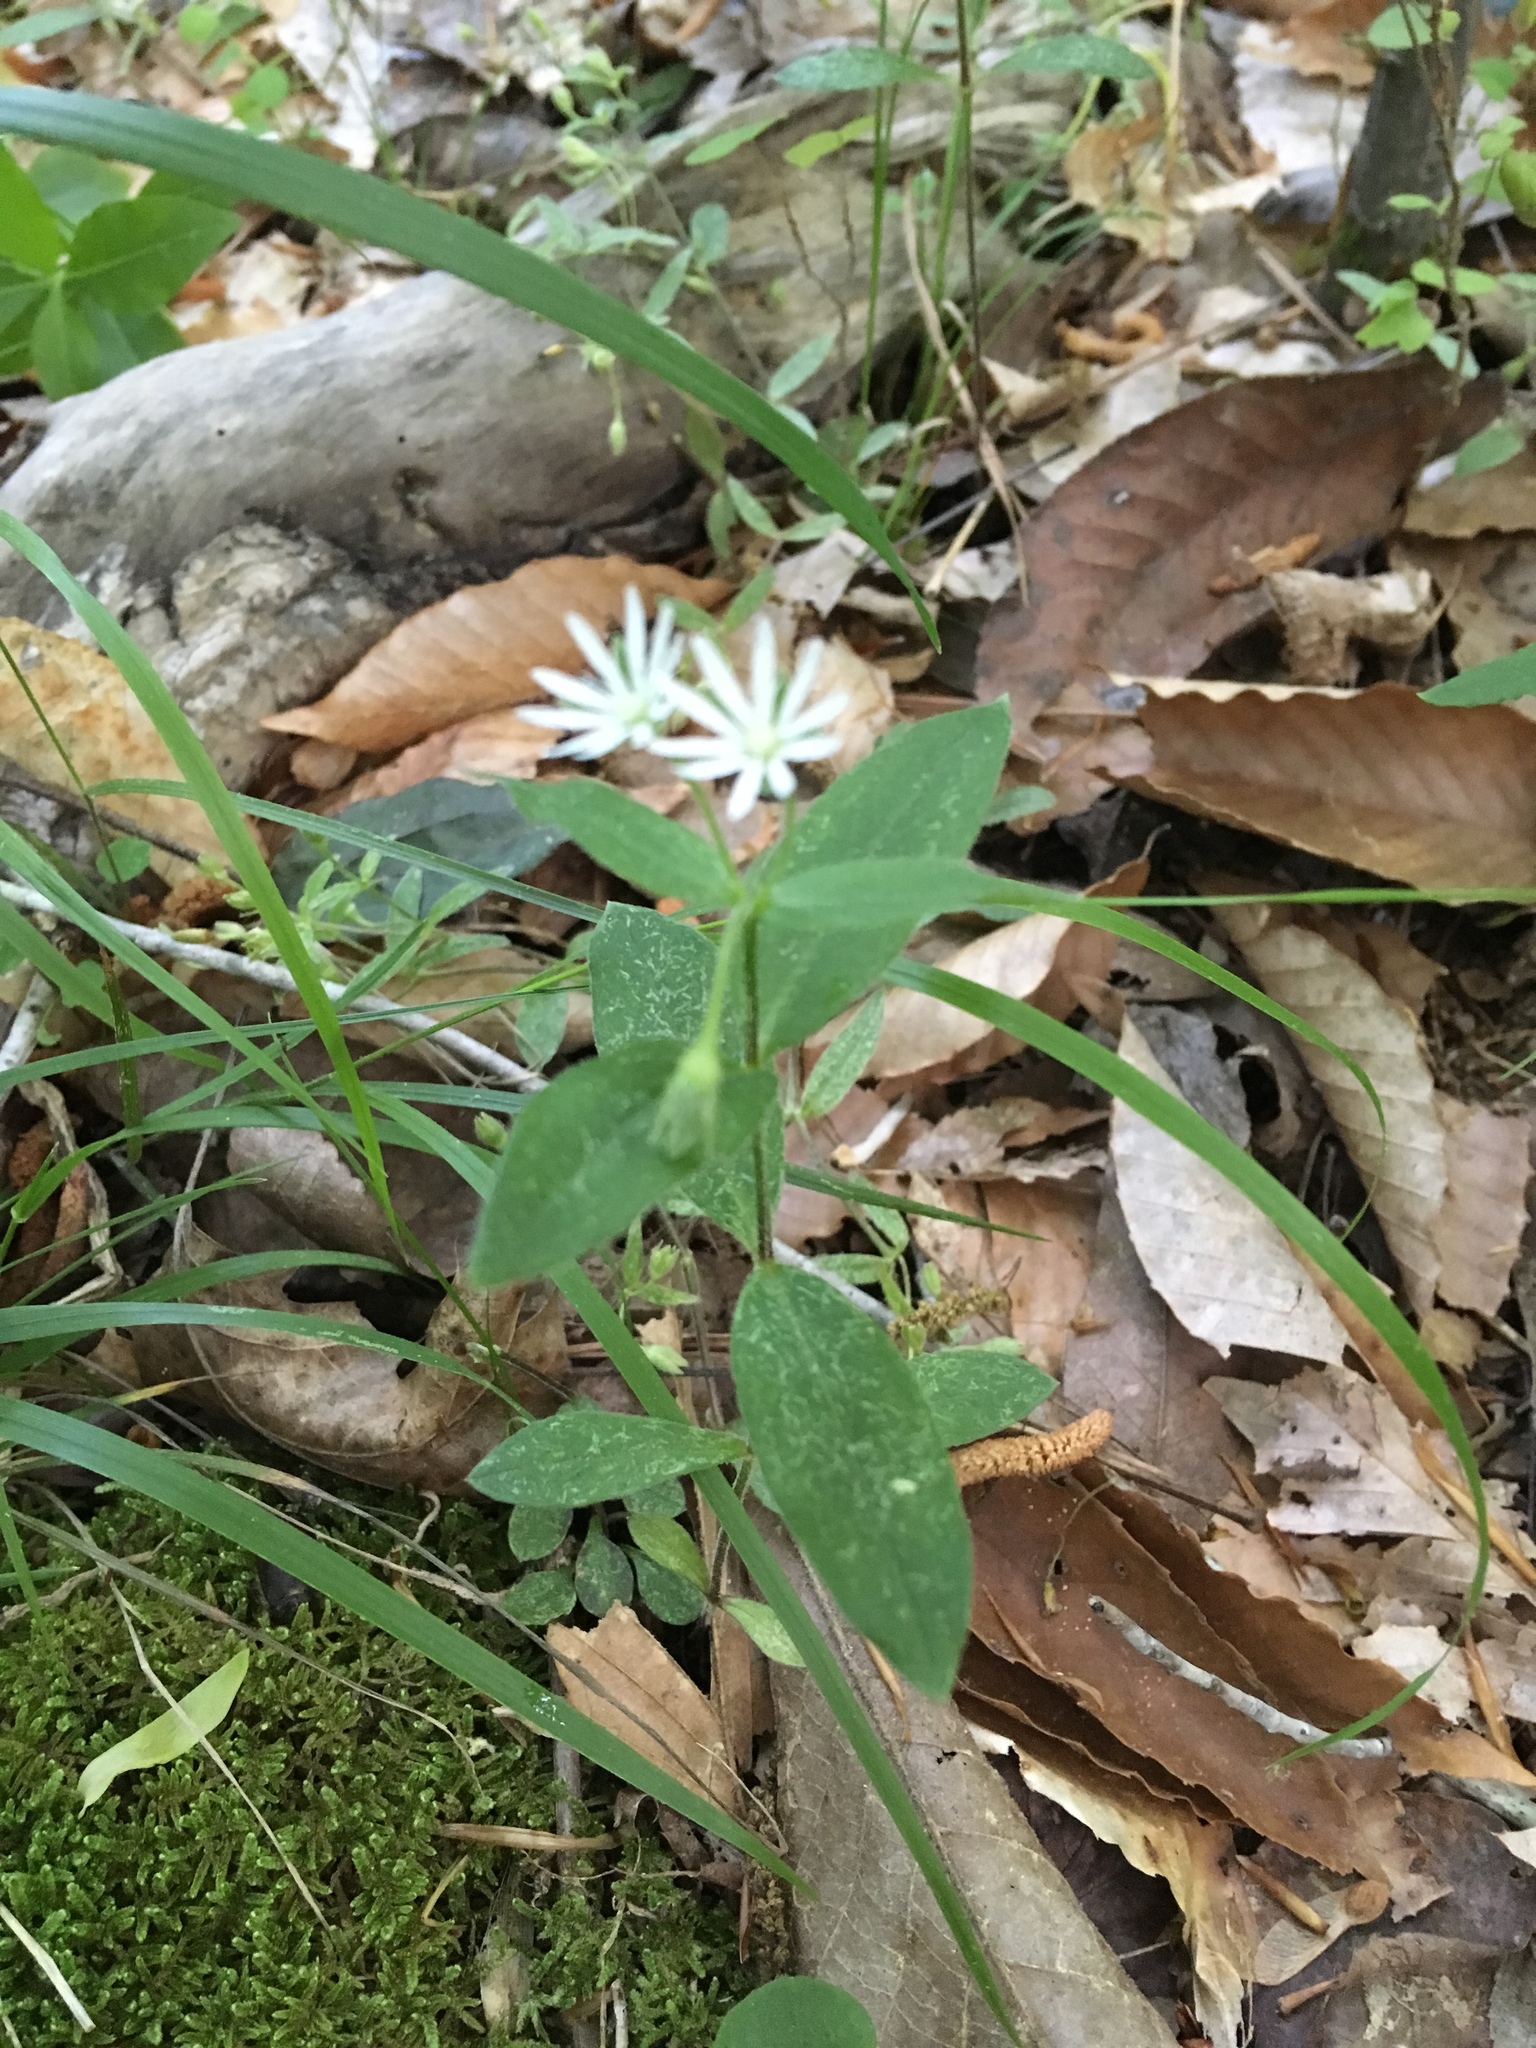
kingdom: Plantae
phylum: Tracheophyta
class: Magnoliopsida
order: Caryophyllales
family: Caryophyllaceae
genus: Stellaria
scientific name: Stellaria pubera
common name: Star chickweed
